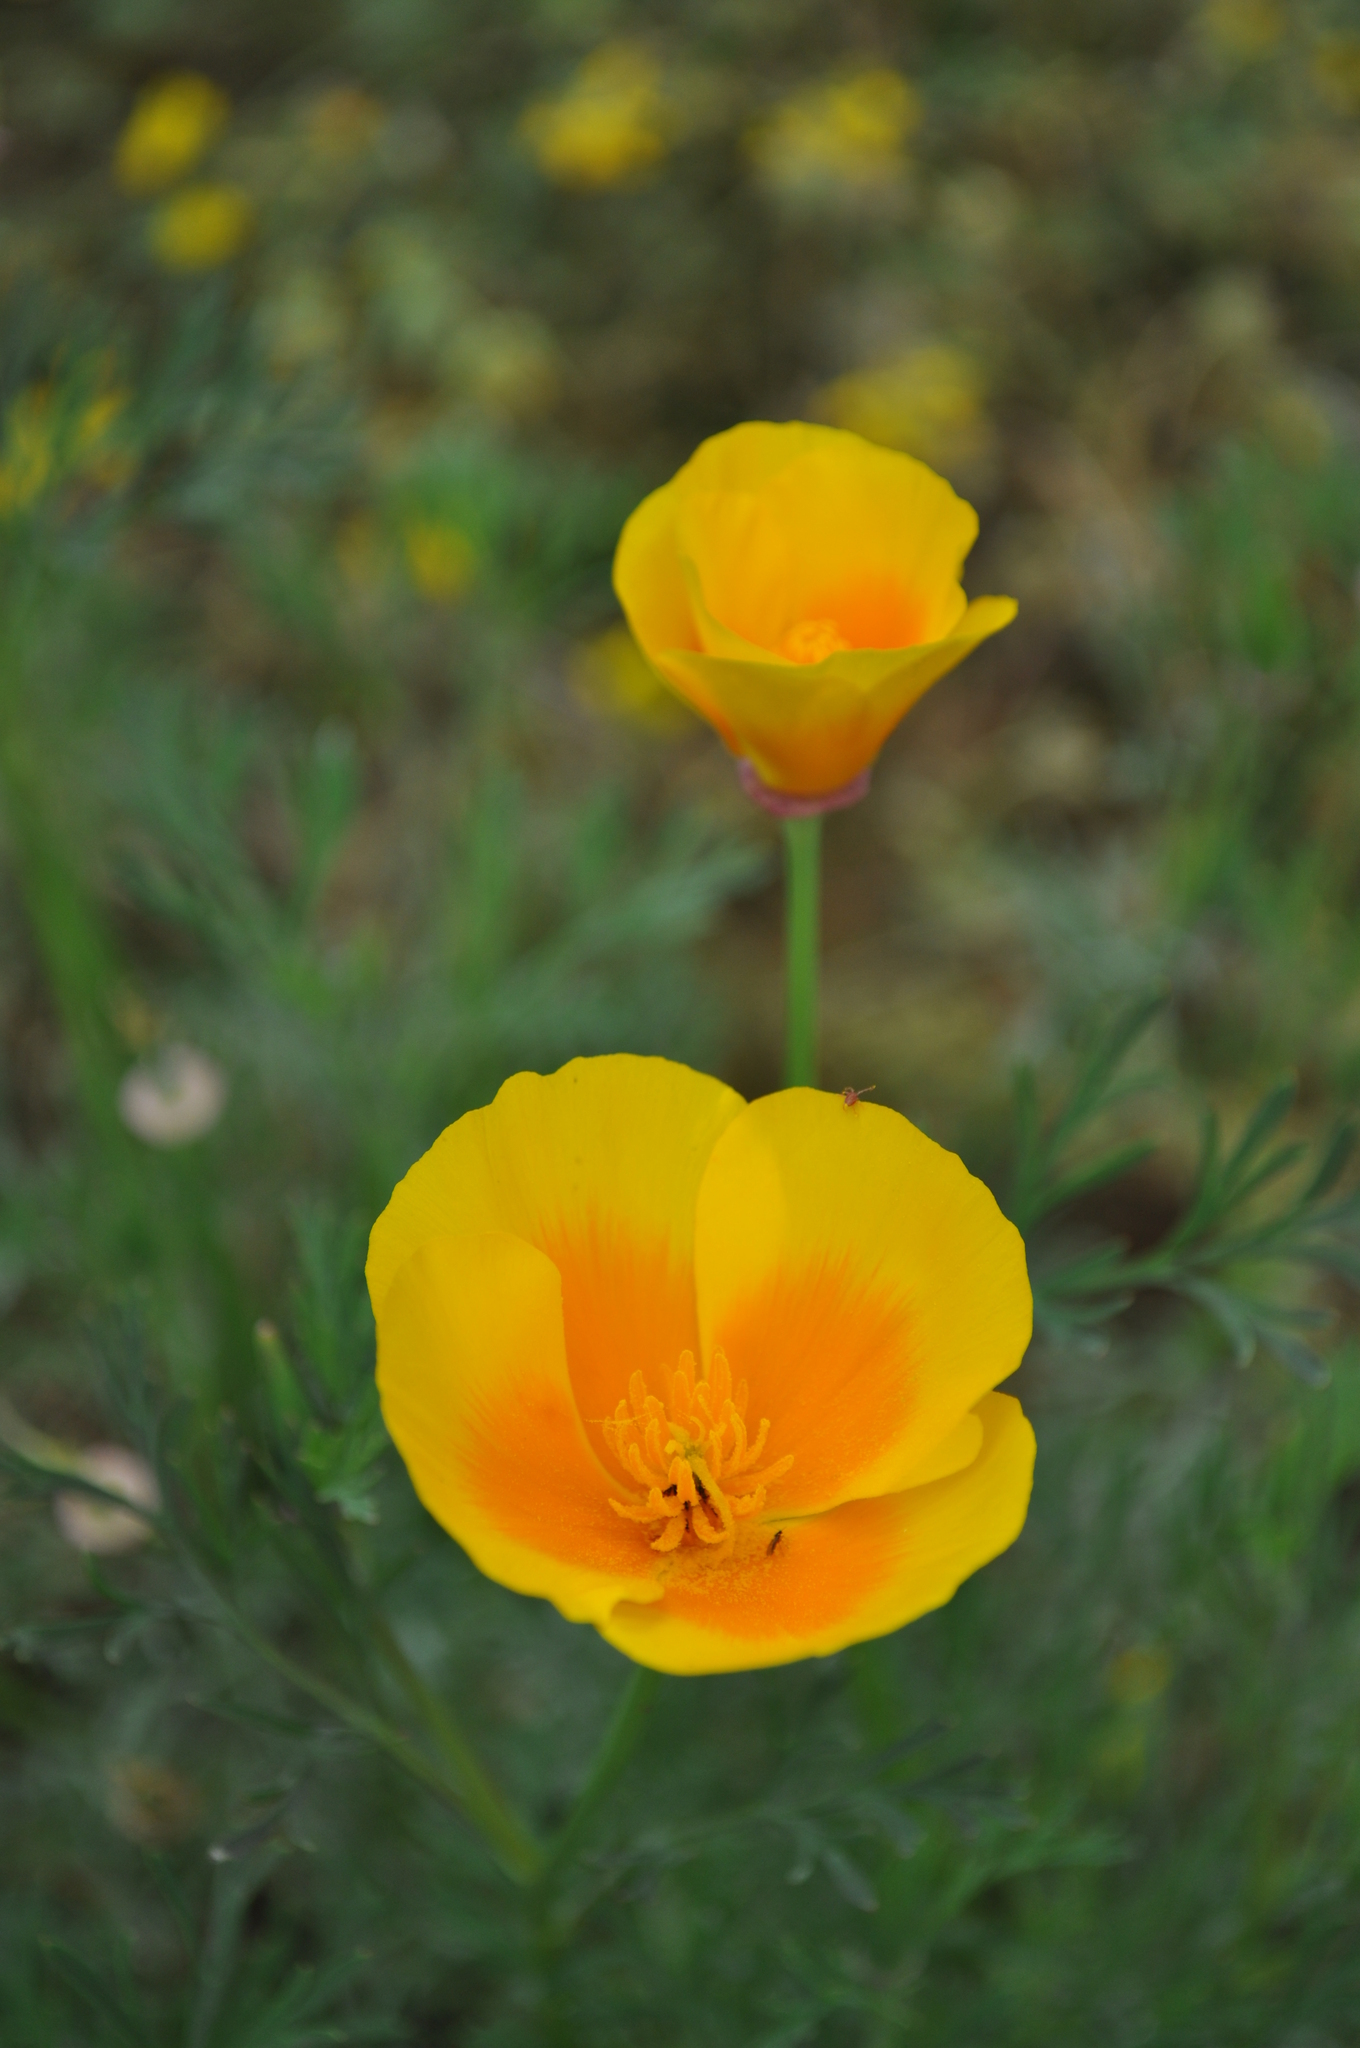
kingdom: Plantae
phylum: Tracheophyta
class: Magnoliopsida
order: Ranunculales
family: Papaveraceae
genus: Eschscholzia
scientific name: Eschscholzia californica
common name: California poppy
